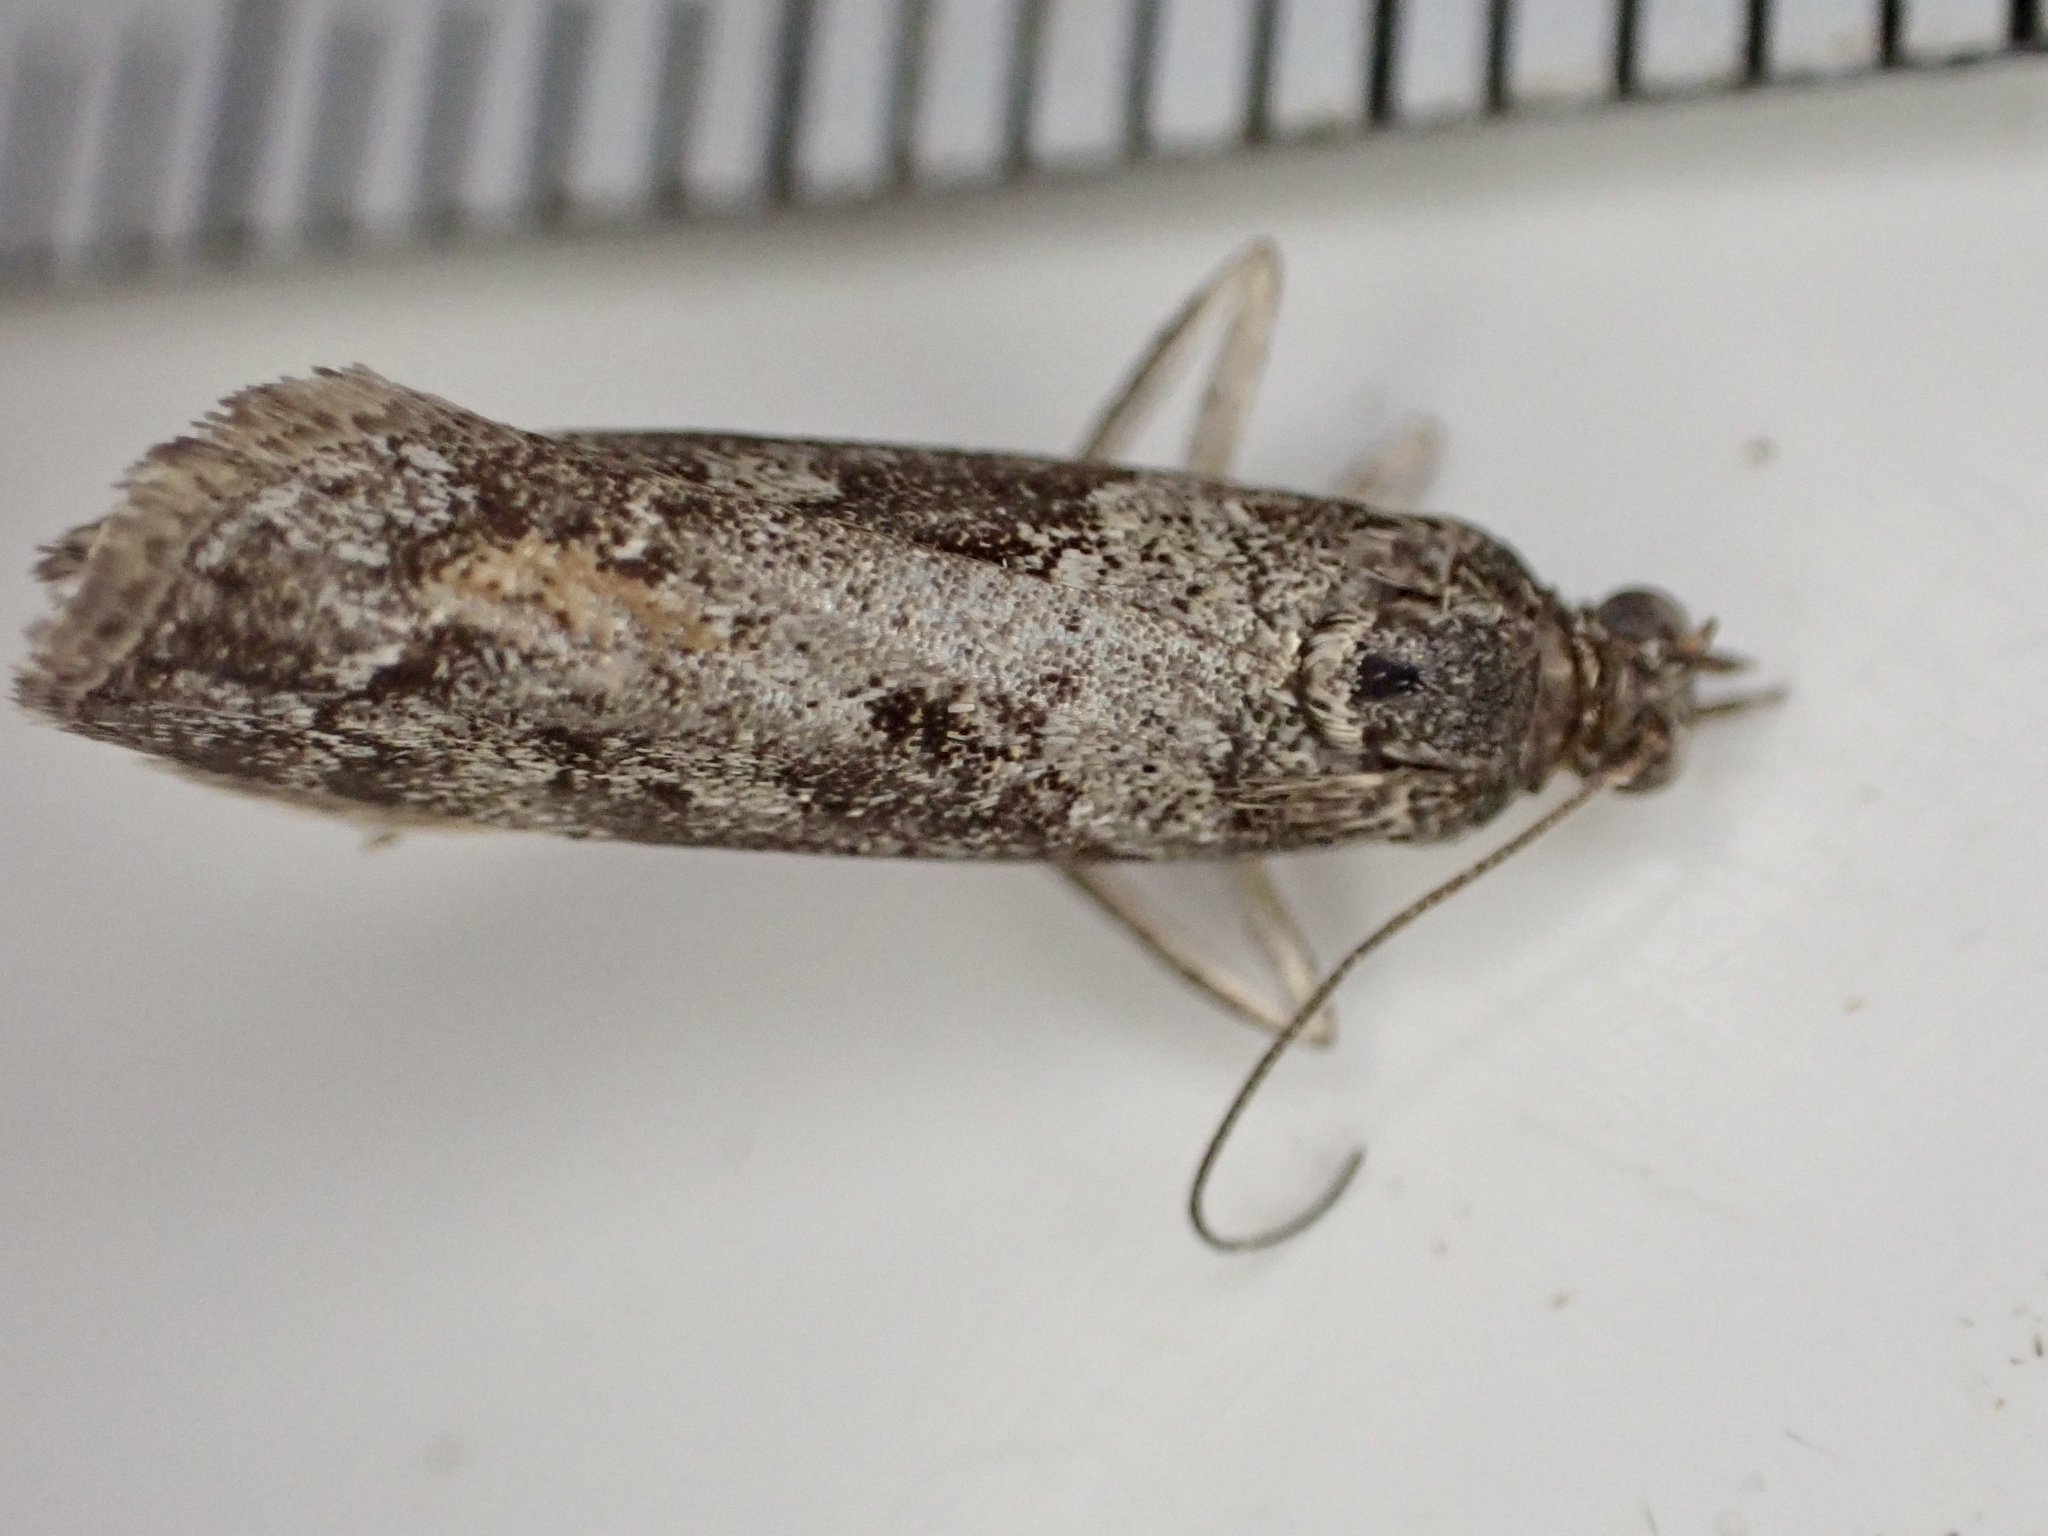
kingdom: Animalia
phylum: Arthropoda
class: Insecta
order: Lepidoptera
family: Crambidae
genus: Eudonia
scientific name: Eudonia submarginalis
